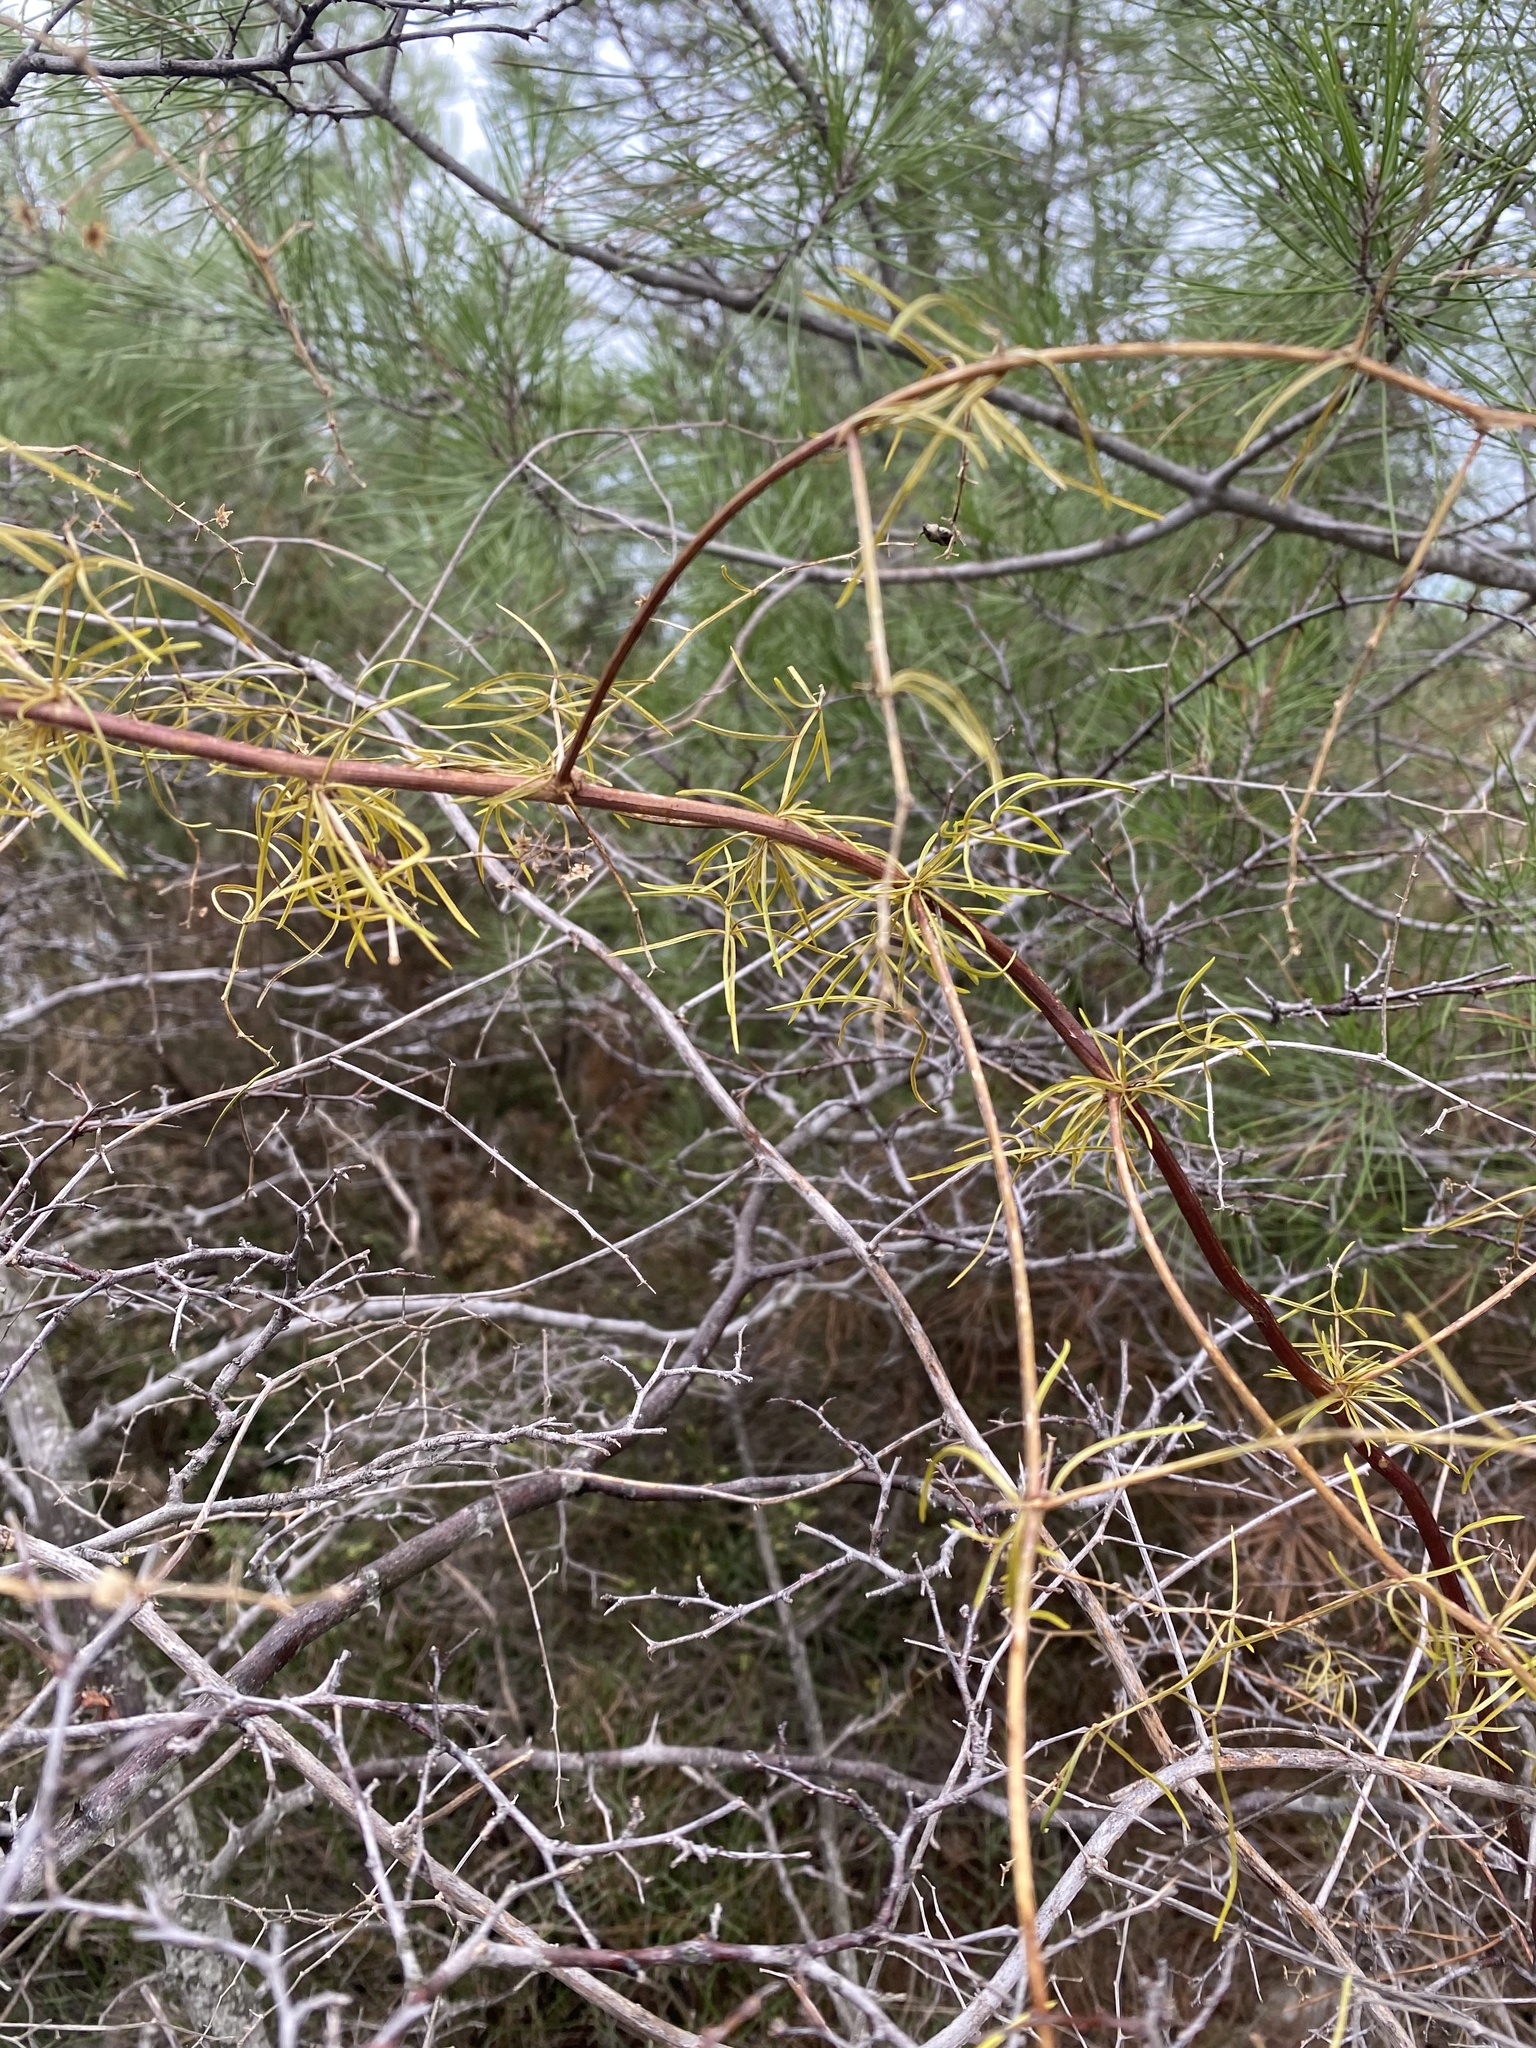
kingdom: Plantae
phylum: Tracheophyta
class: Liliopsida
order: Asparagales
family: Asparagaceae
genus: Asparagus
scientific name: Asparagus verticillatus
